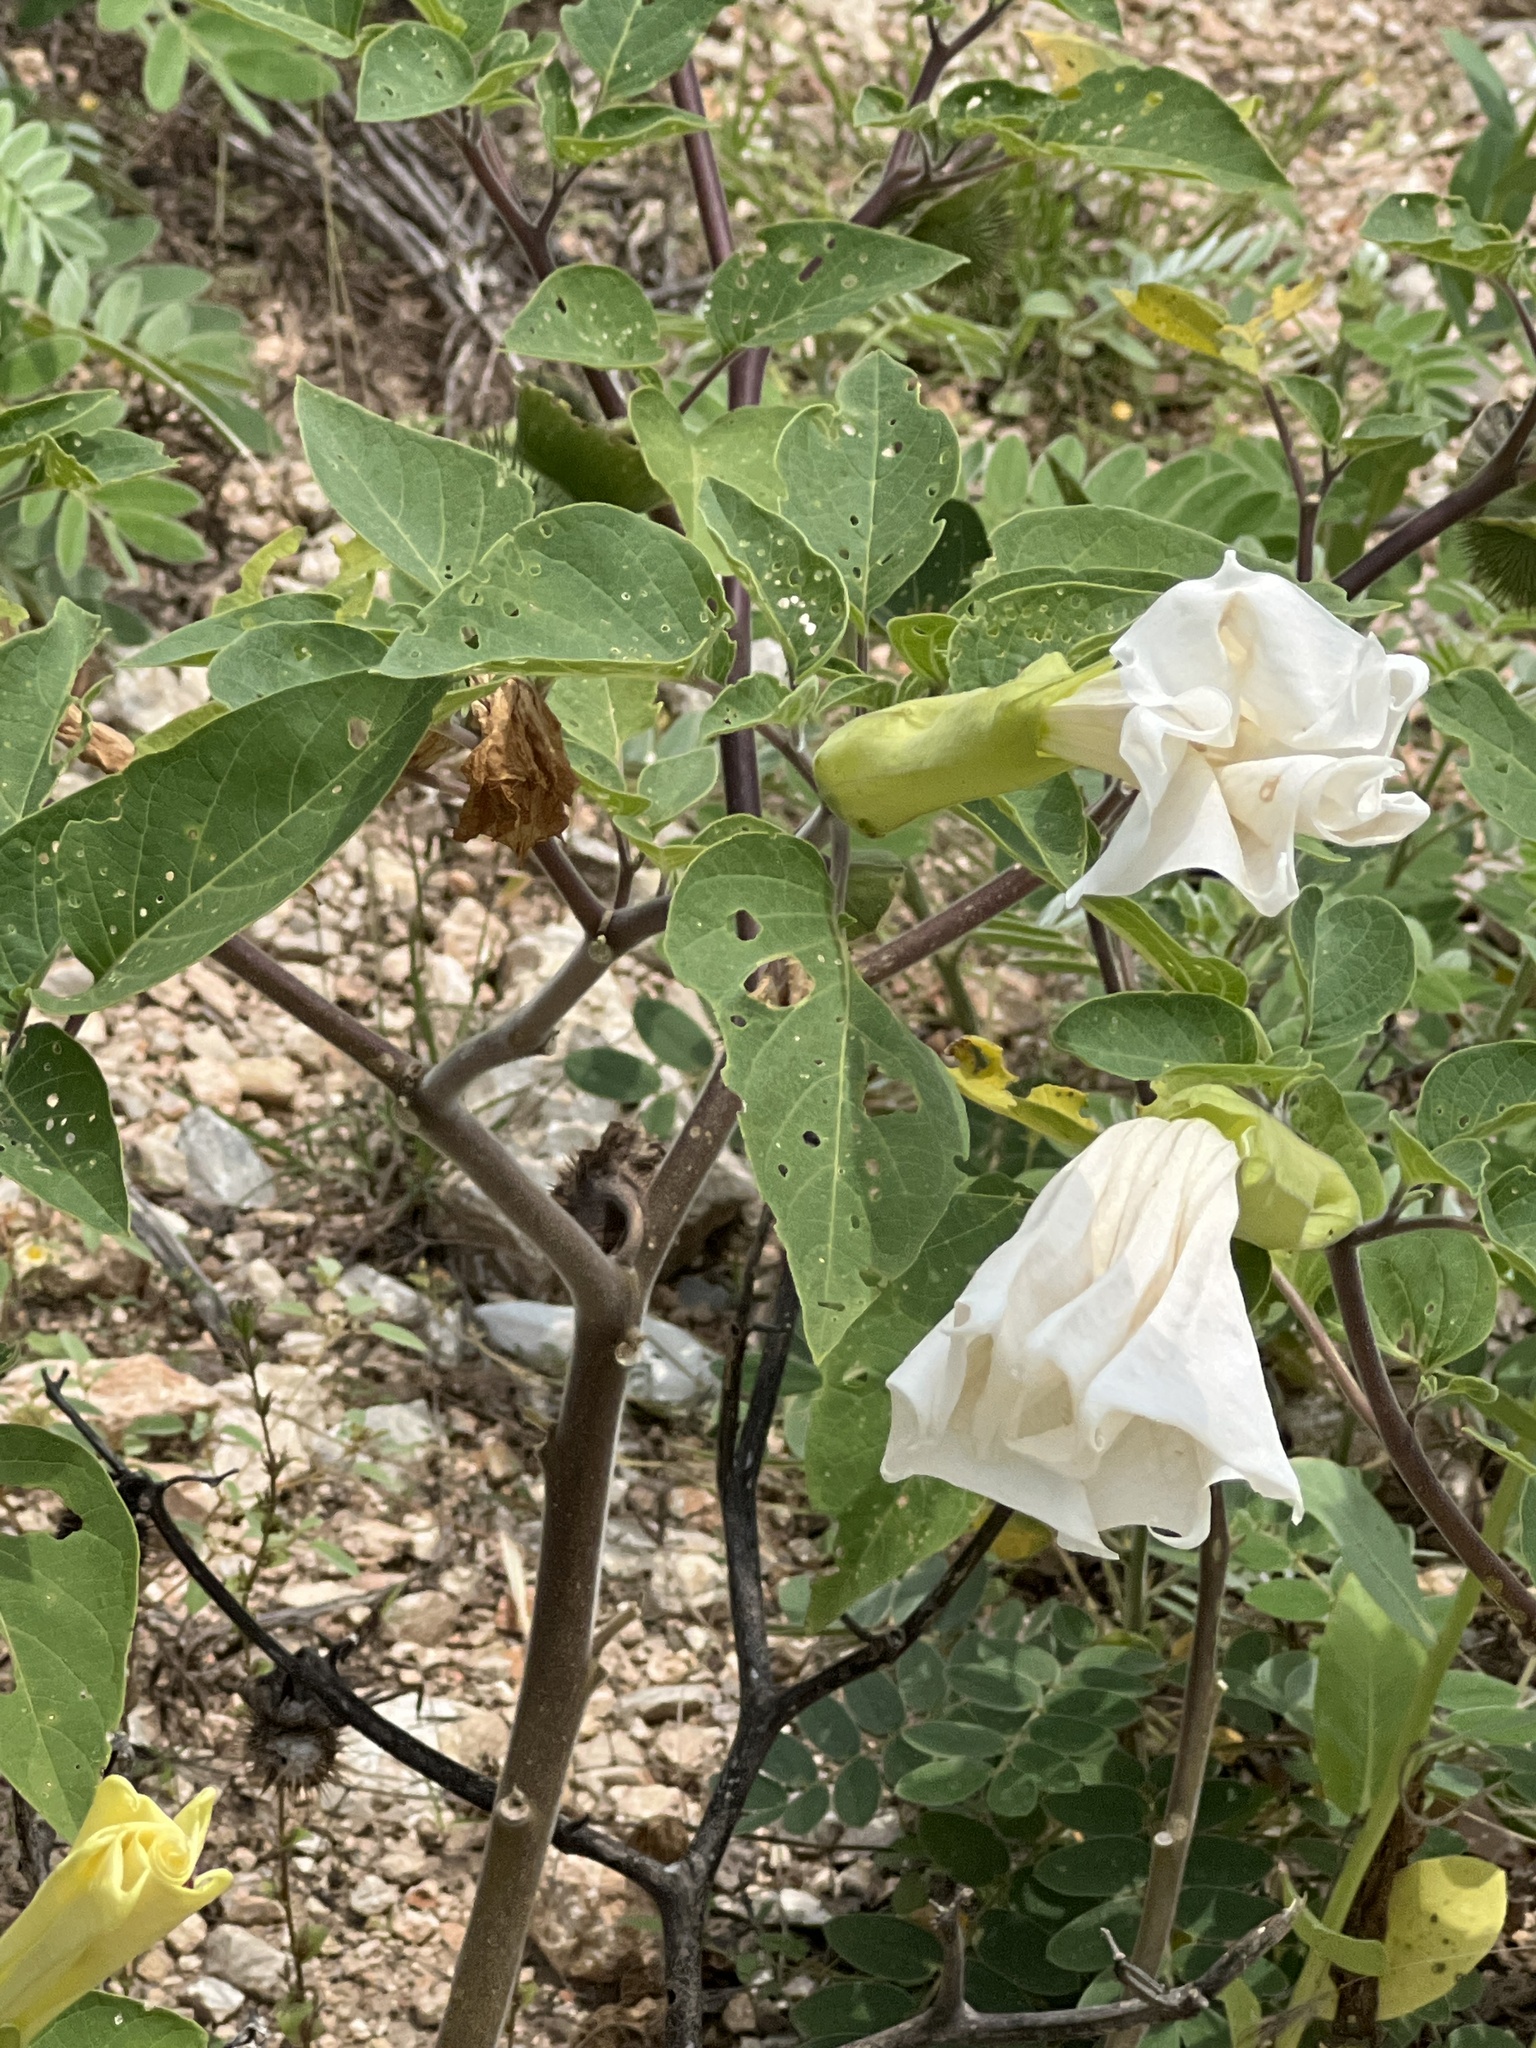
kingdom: Plantae
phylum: Tracheophyta
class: Magnoliopsida
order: Solanales
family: Solanaceae
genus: Datura
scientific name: Datura innoxia
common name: Downy thorn-apple
